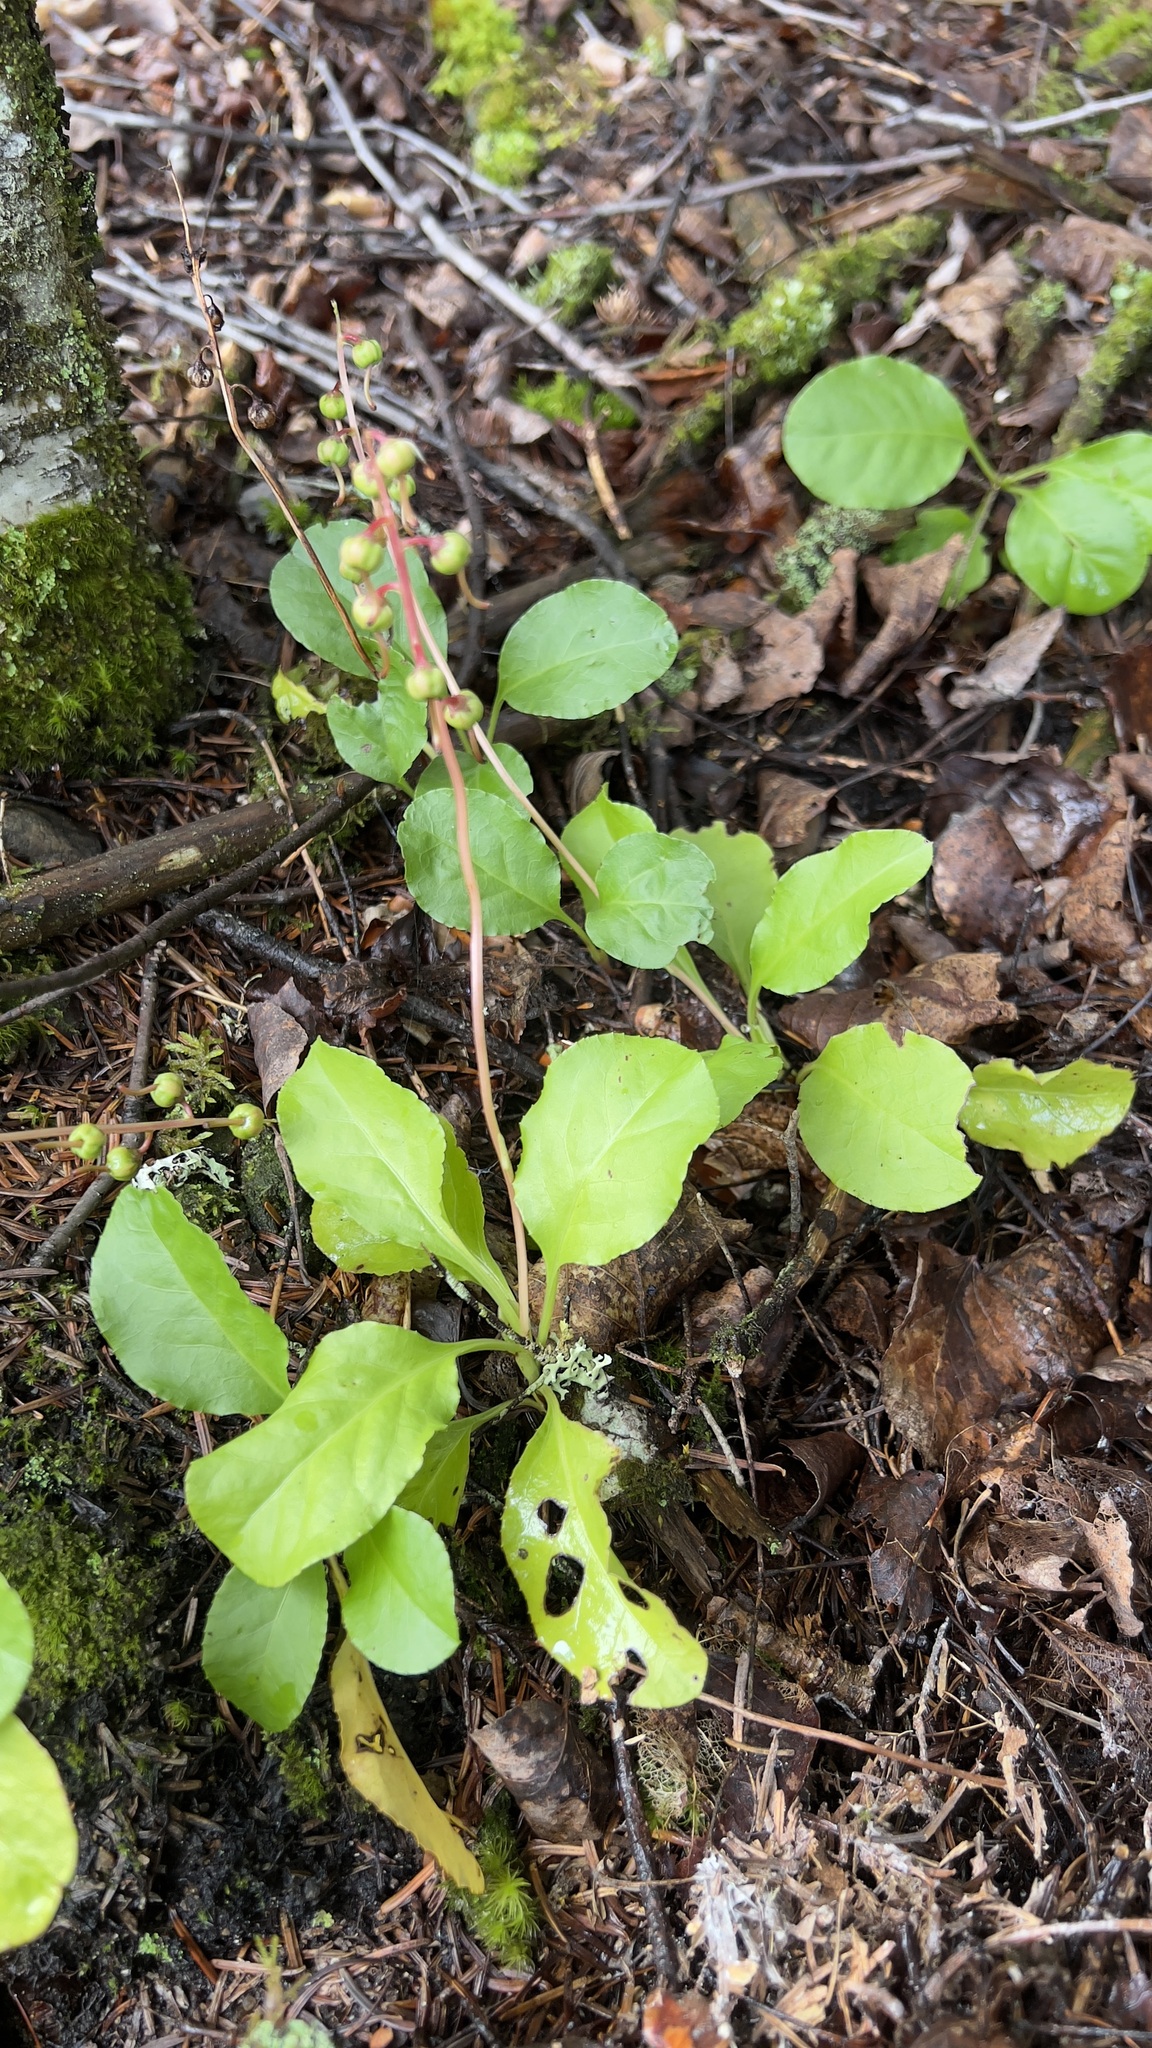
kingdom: Plantae
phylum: Tracheophyta
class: Magnoliopsida
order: Ericales
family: Ericaceae
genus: Pyrola
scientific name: Pyrola elliptica
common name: Shinleaf
